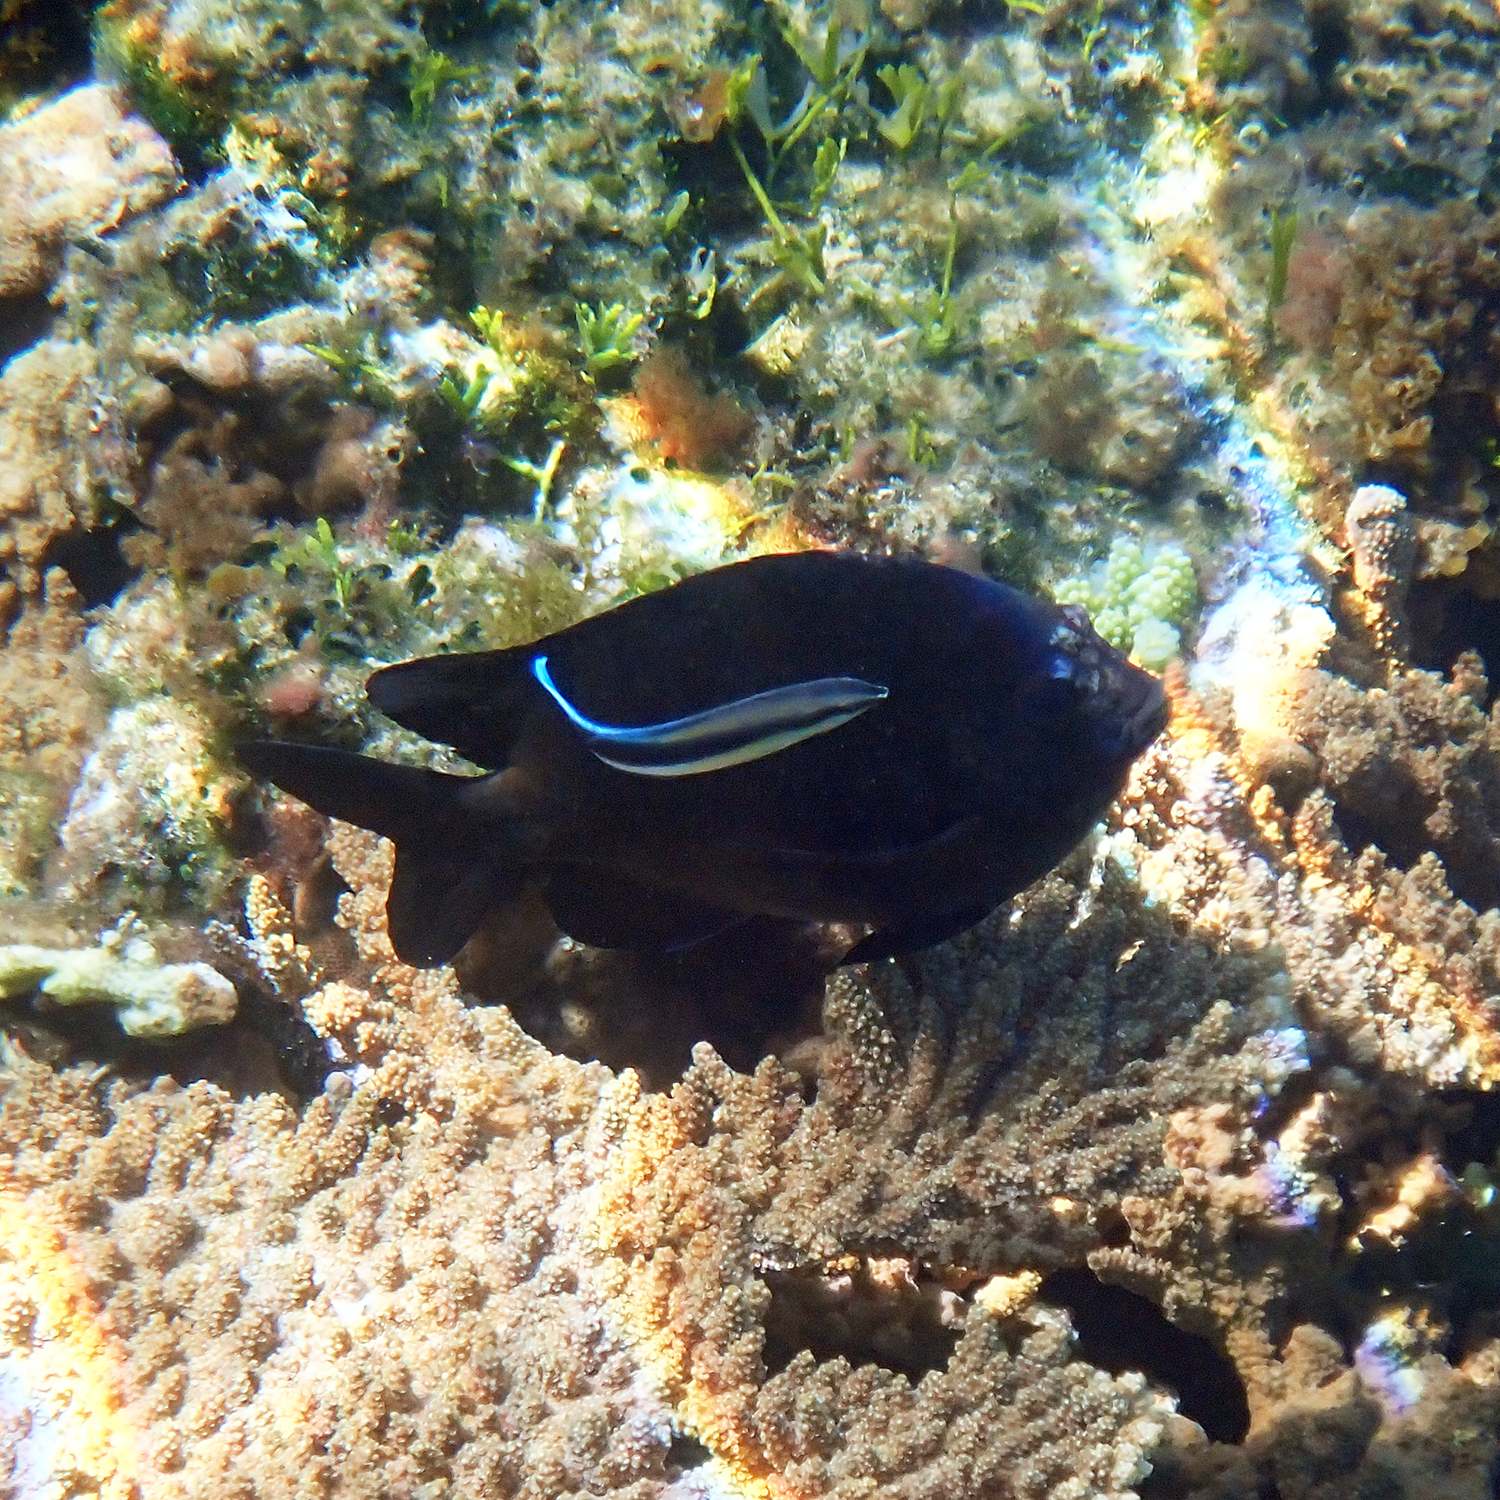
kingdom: Animalia
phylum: Chordata
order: Perciformes
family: Labridae
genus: Labroides
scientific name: Labroides dimidiatus
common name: Blue diesel wrasse
